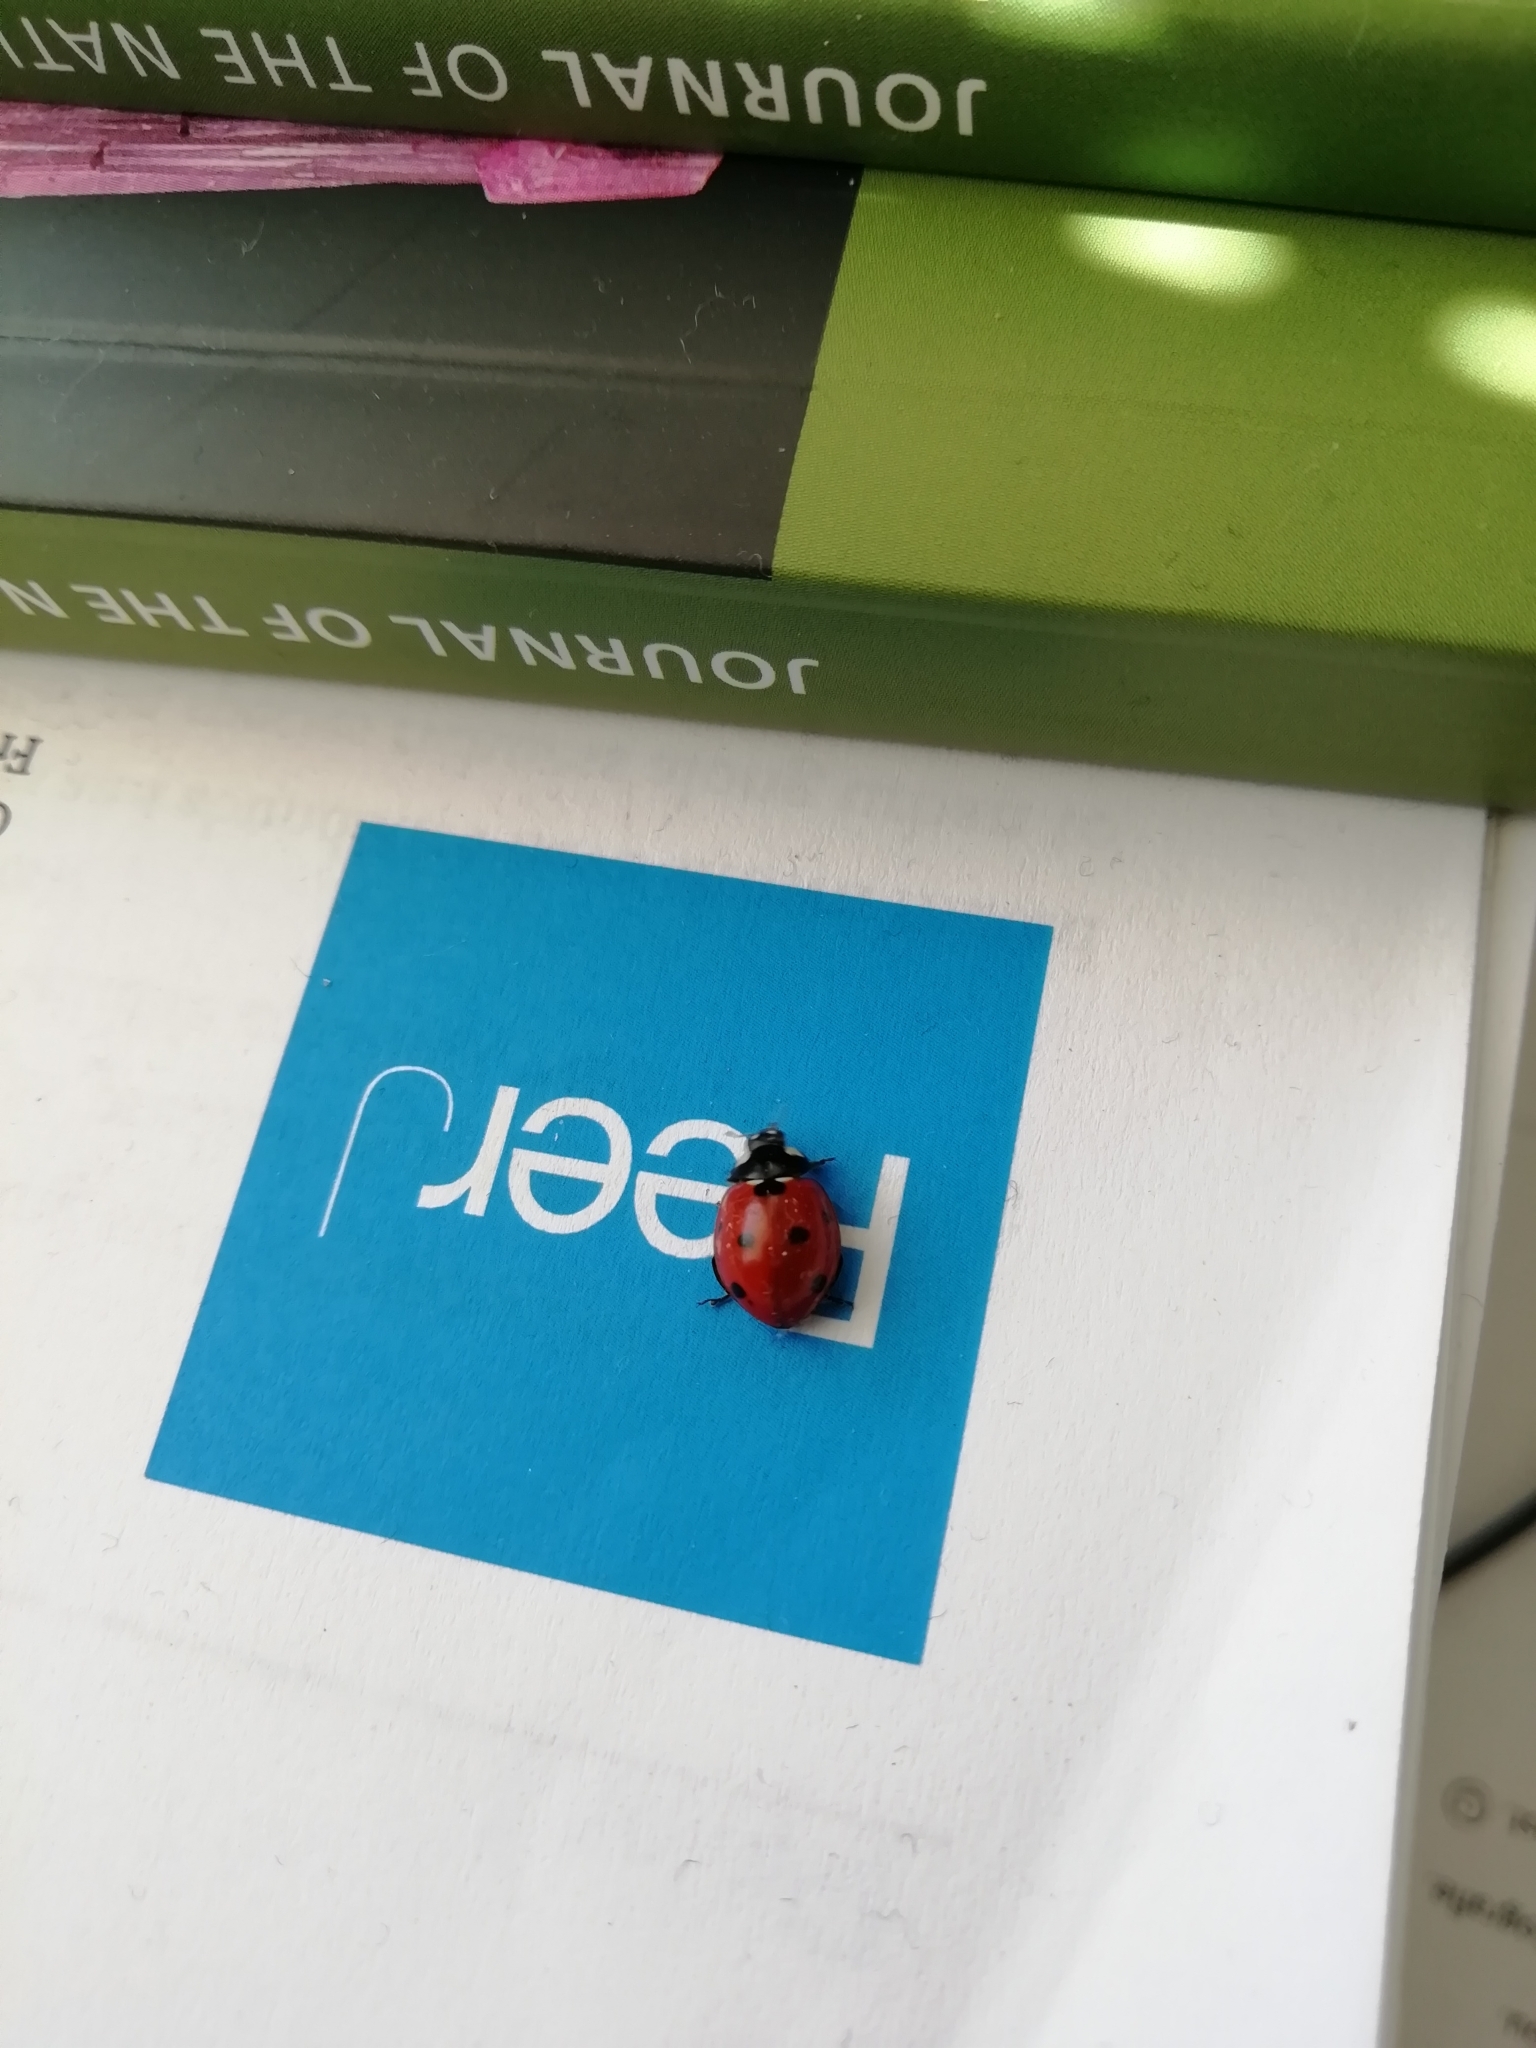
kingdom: Animalia
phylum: Arthropoda
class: Insecta
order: Coleoptera
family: Coccinellidae
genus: Coccinella
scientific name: Coccinella septempunctata
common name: Sevenspotted lady beetle
